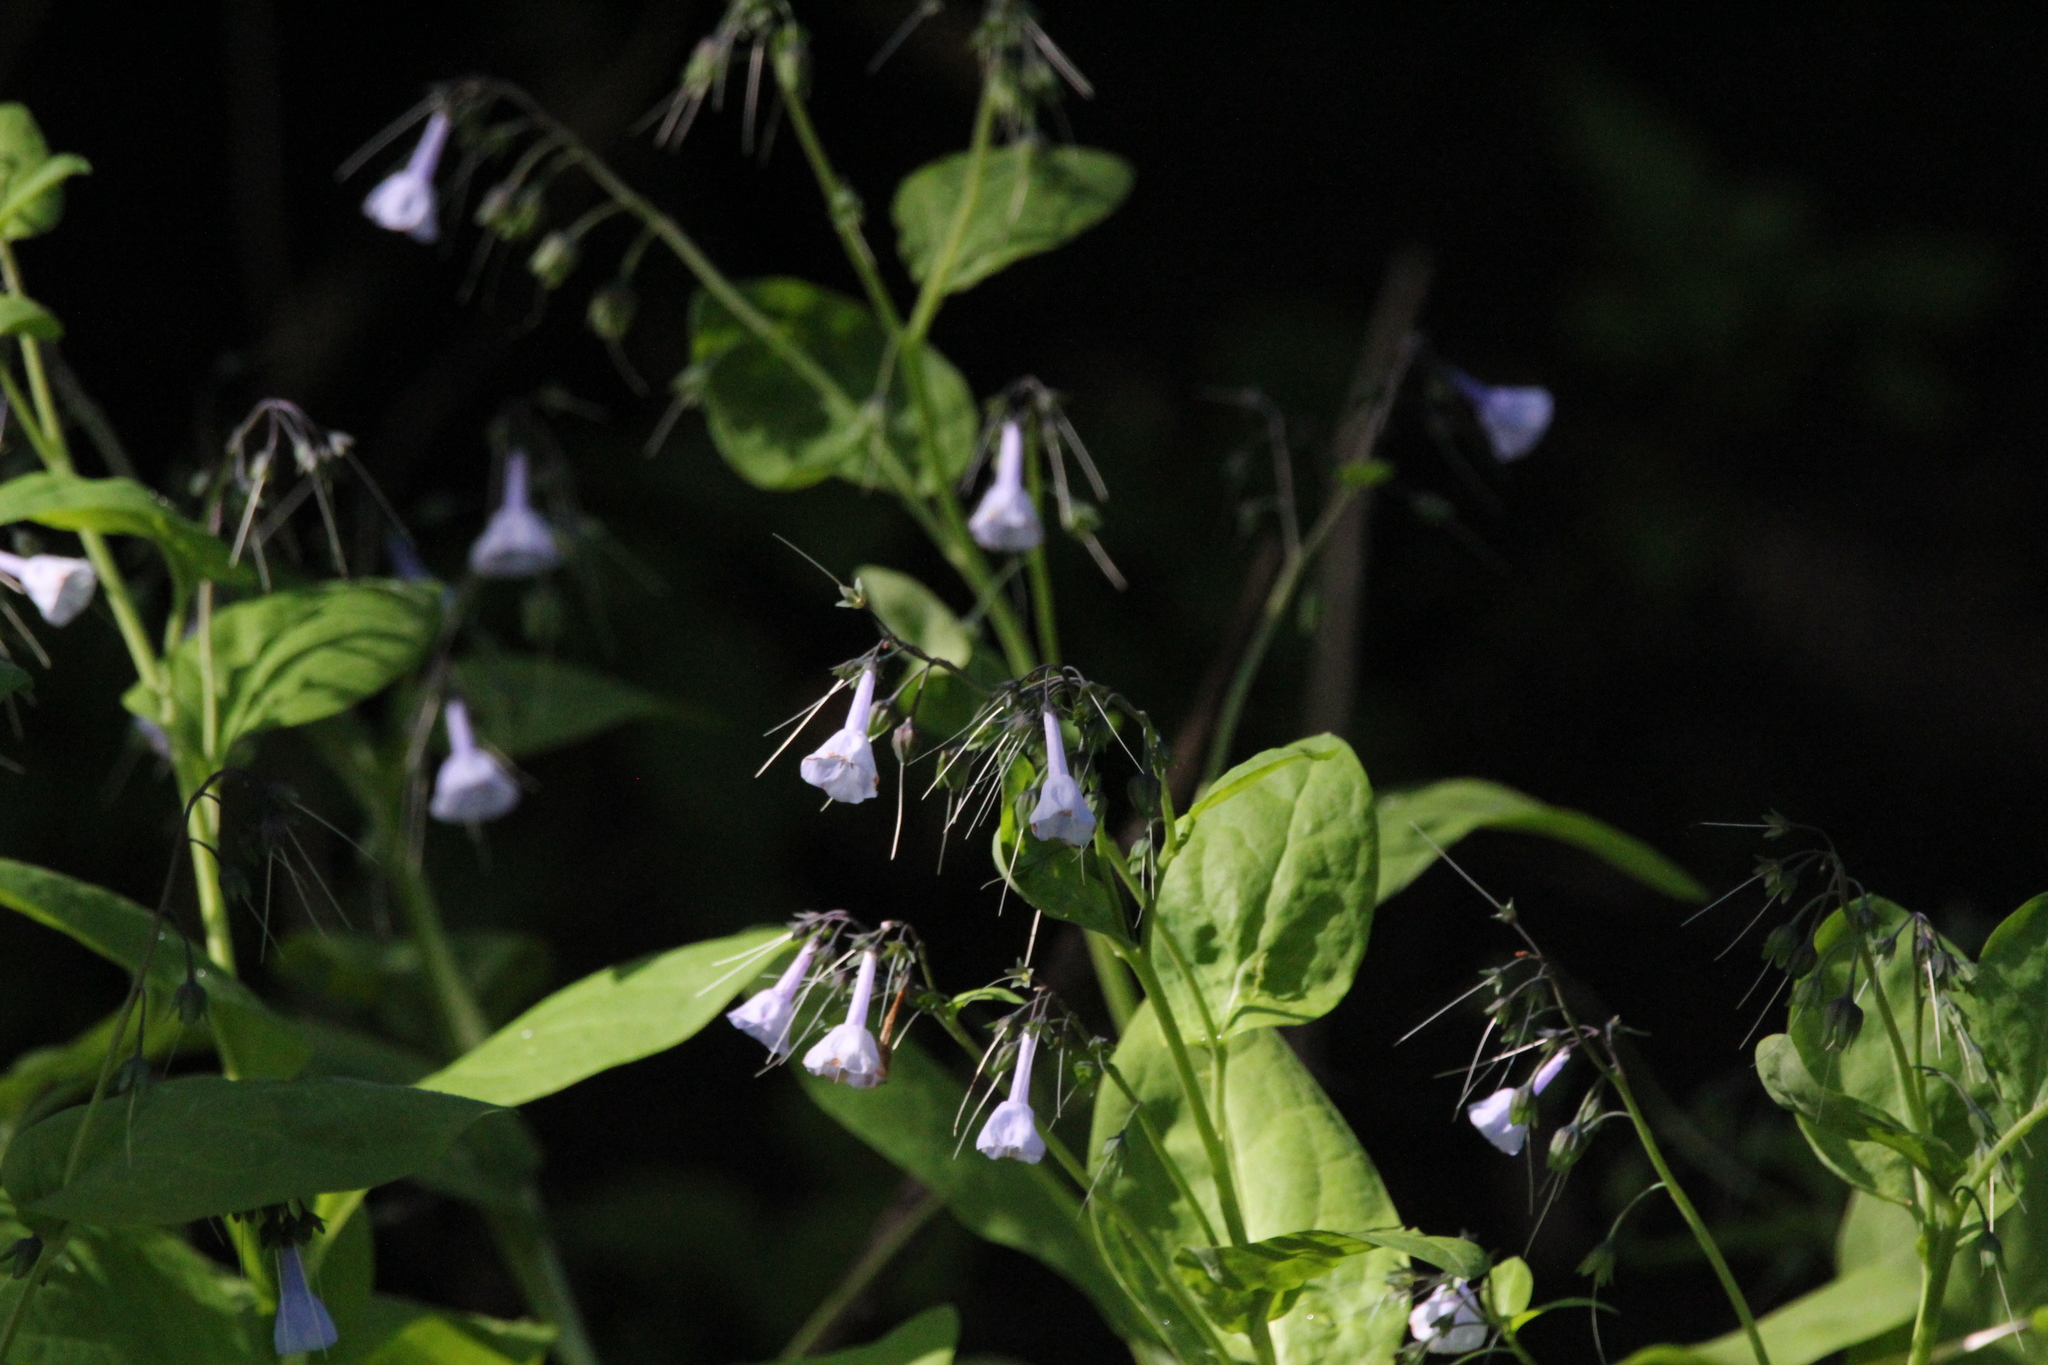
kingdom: Plantae
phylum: Tracheophyta
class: Magnoliopsida
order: Boraginales
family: Boraginaceae
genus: Mertensia
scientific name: Mertensia virginica
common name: Virginia bluebells
